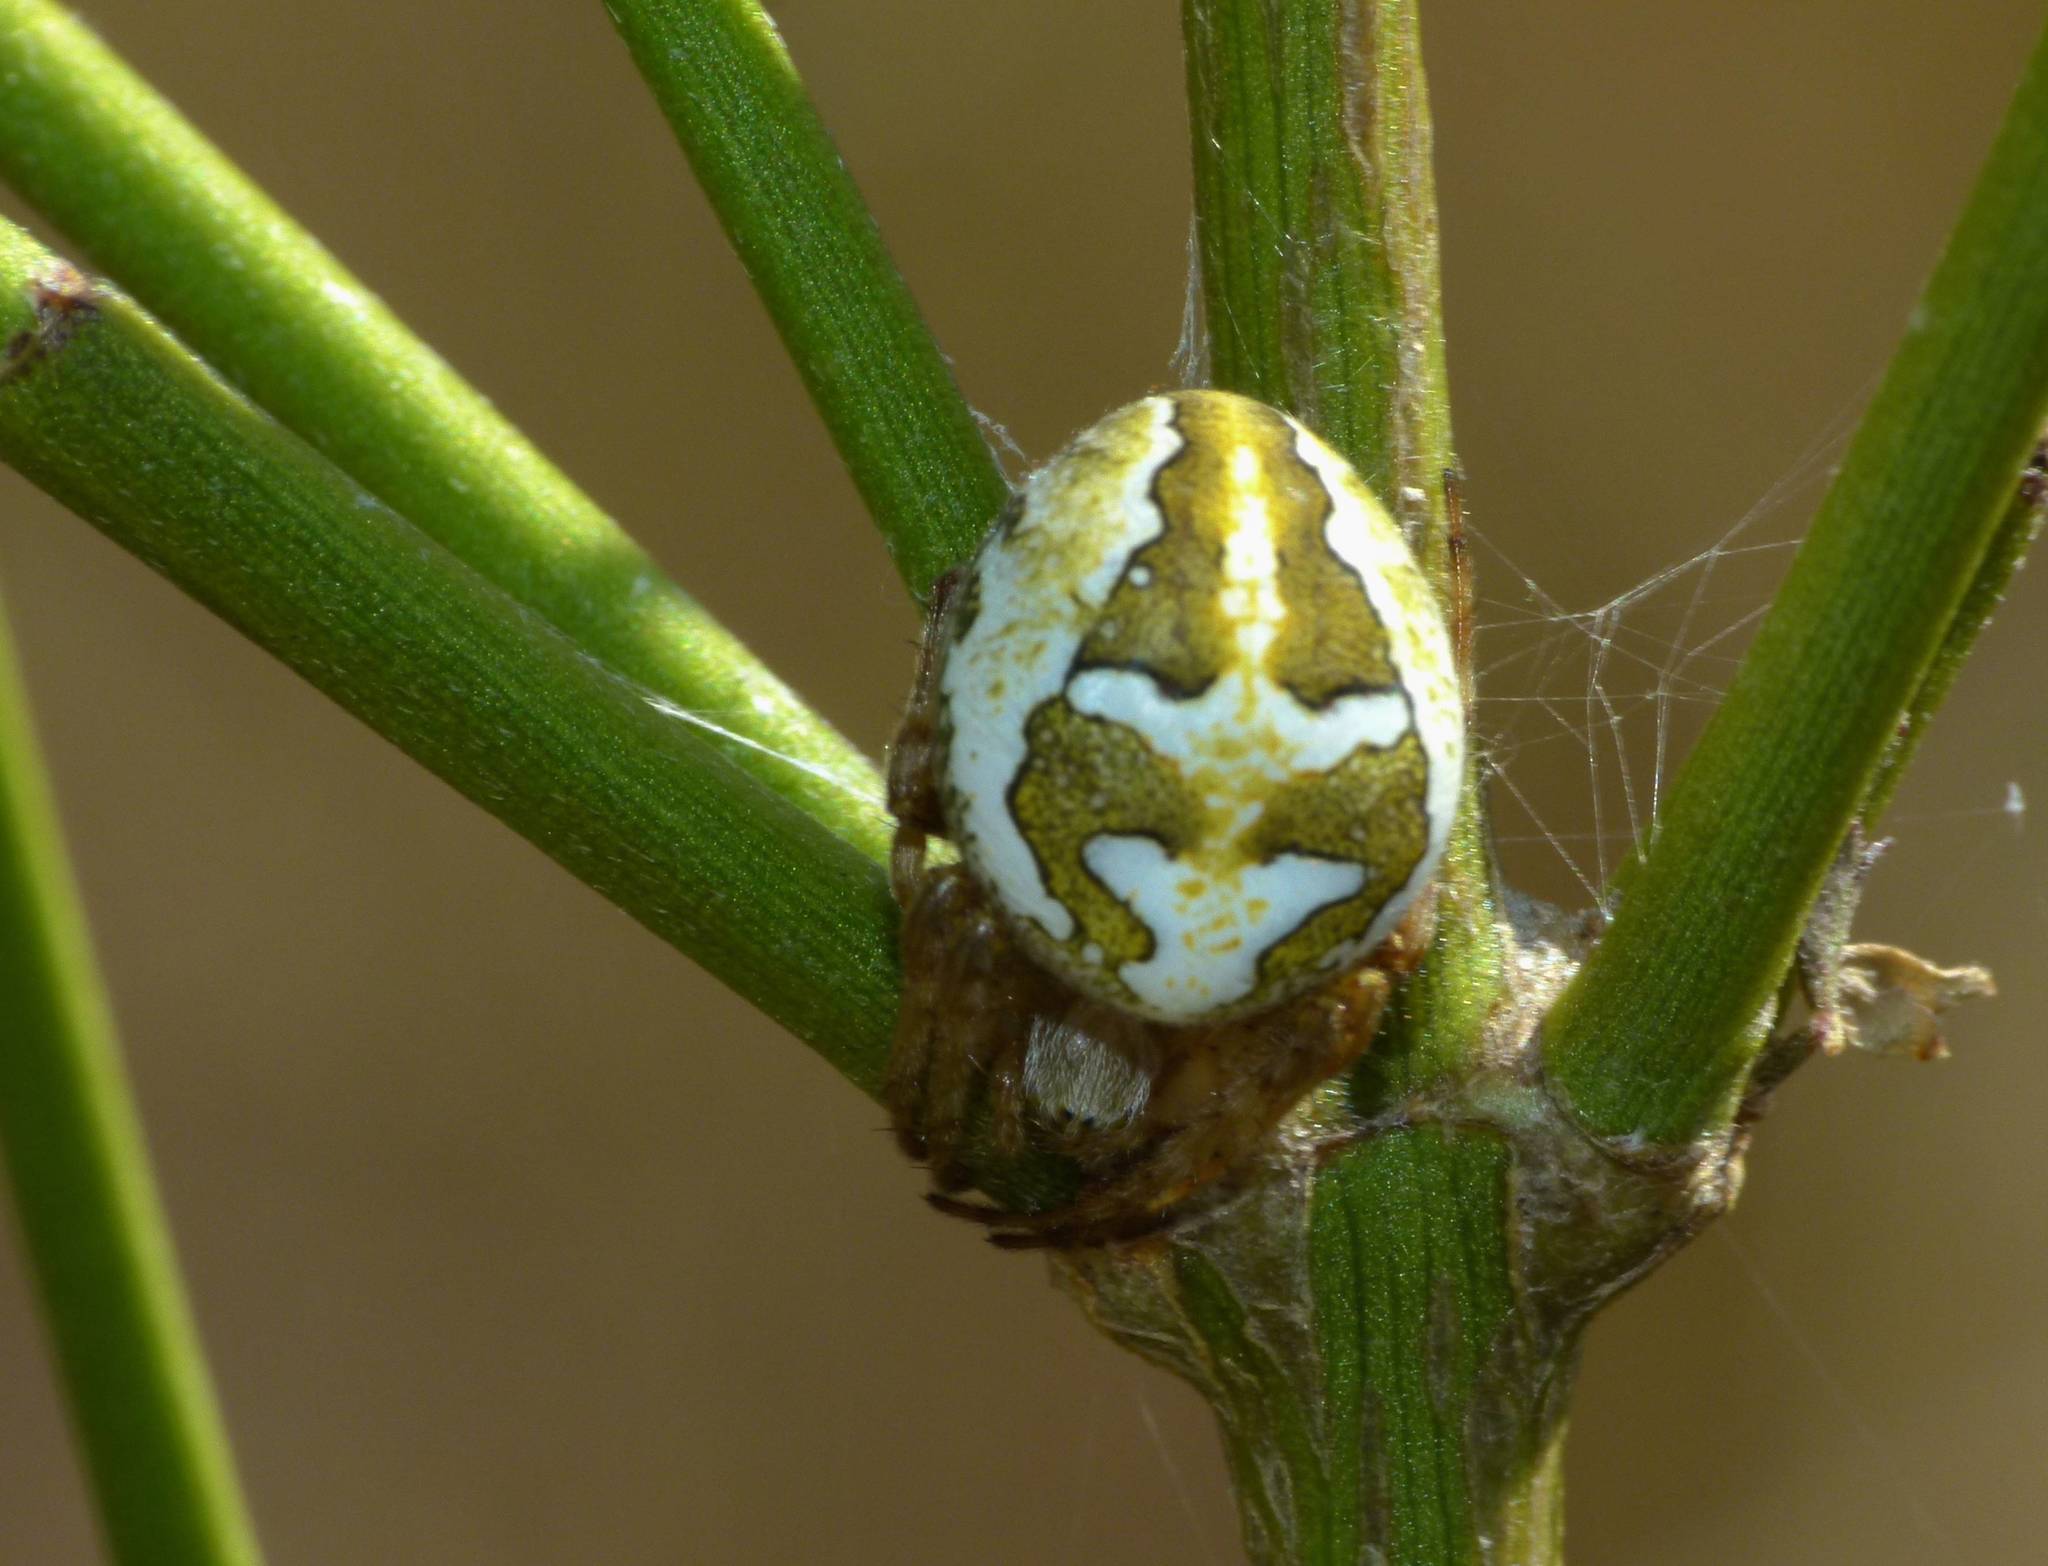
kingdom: Animalia
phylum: Arthropoda
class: Arachnida
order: Araneae
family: Araneidae
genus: Colaranea
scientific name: Colaranea verutum
